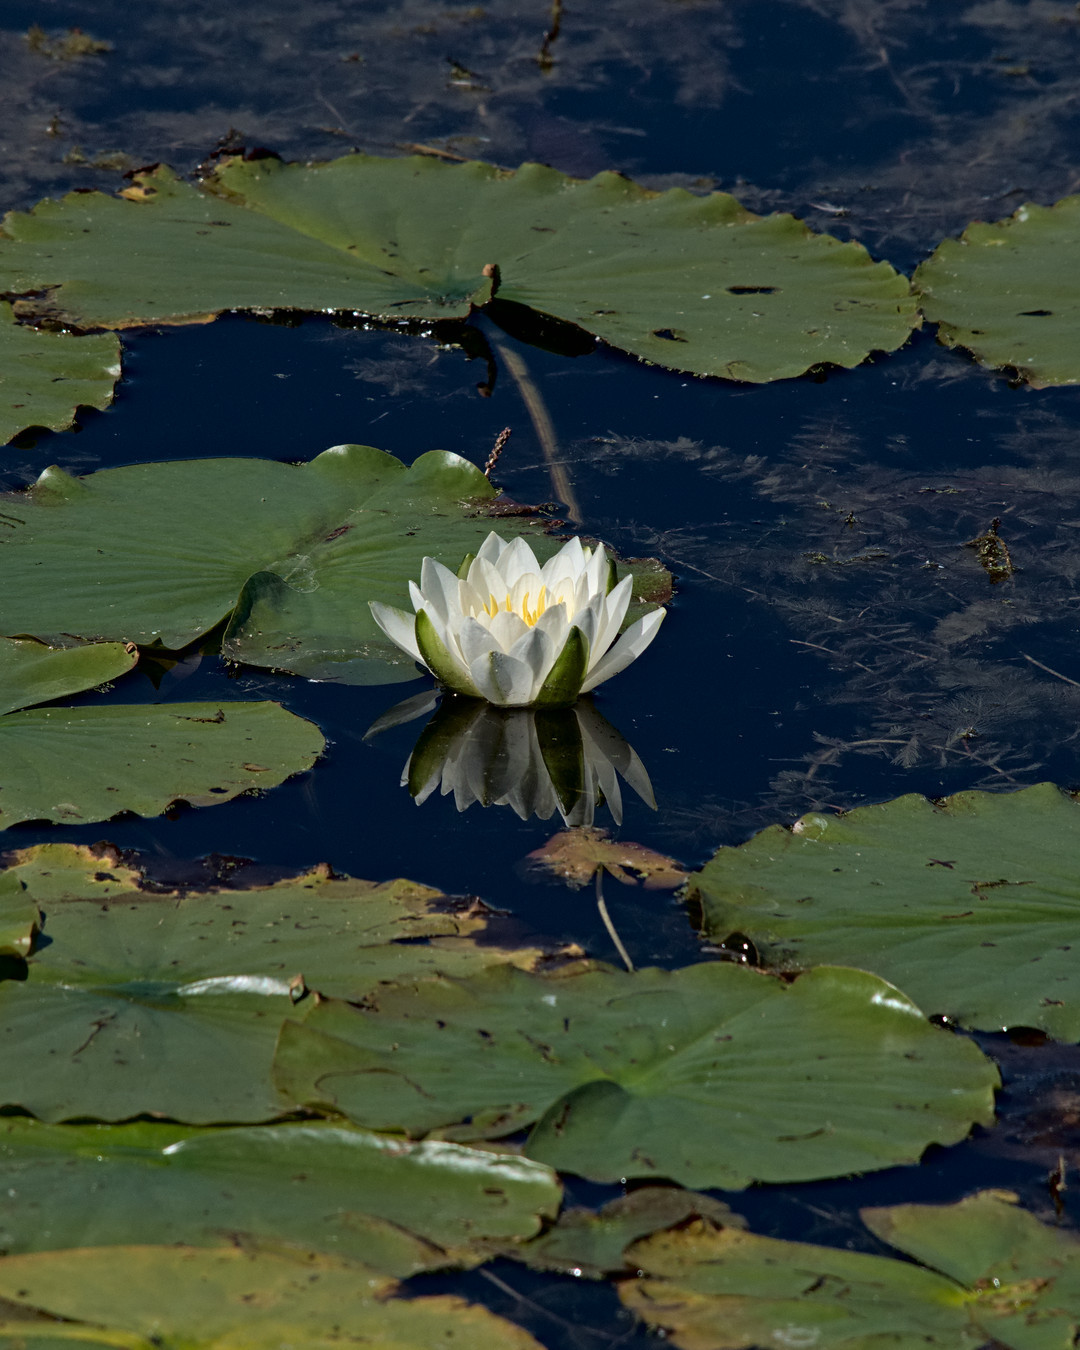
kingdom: Plantae
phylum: Tracheophyta
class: Magnoliopsida
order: Nymphaeales
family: Nymphaeaceae
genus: Nymphaea
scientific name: Nymphaea odorata
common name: Fragrant water-lily
